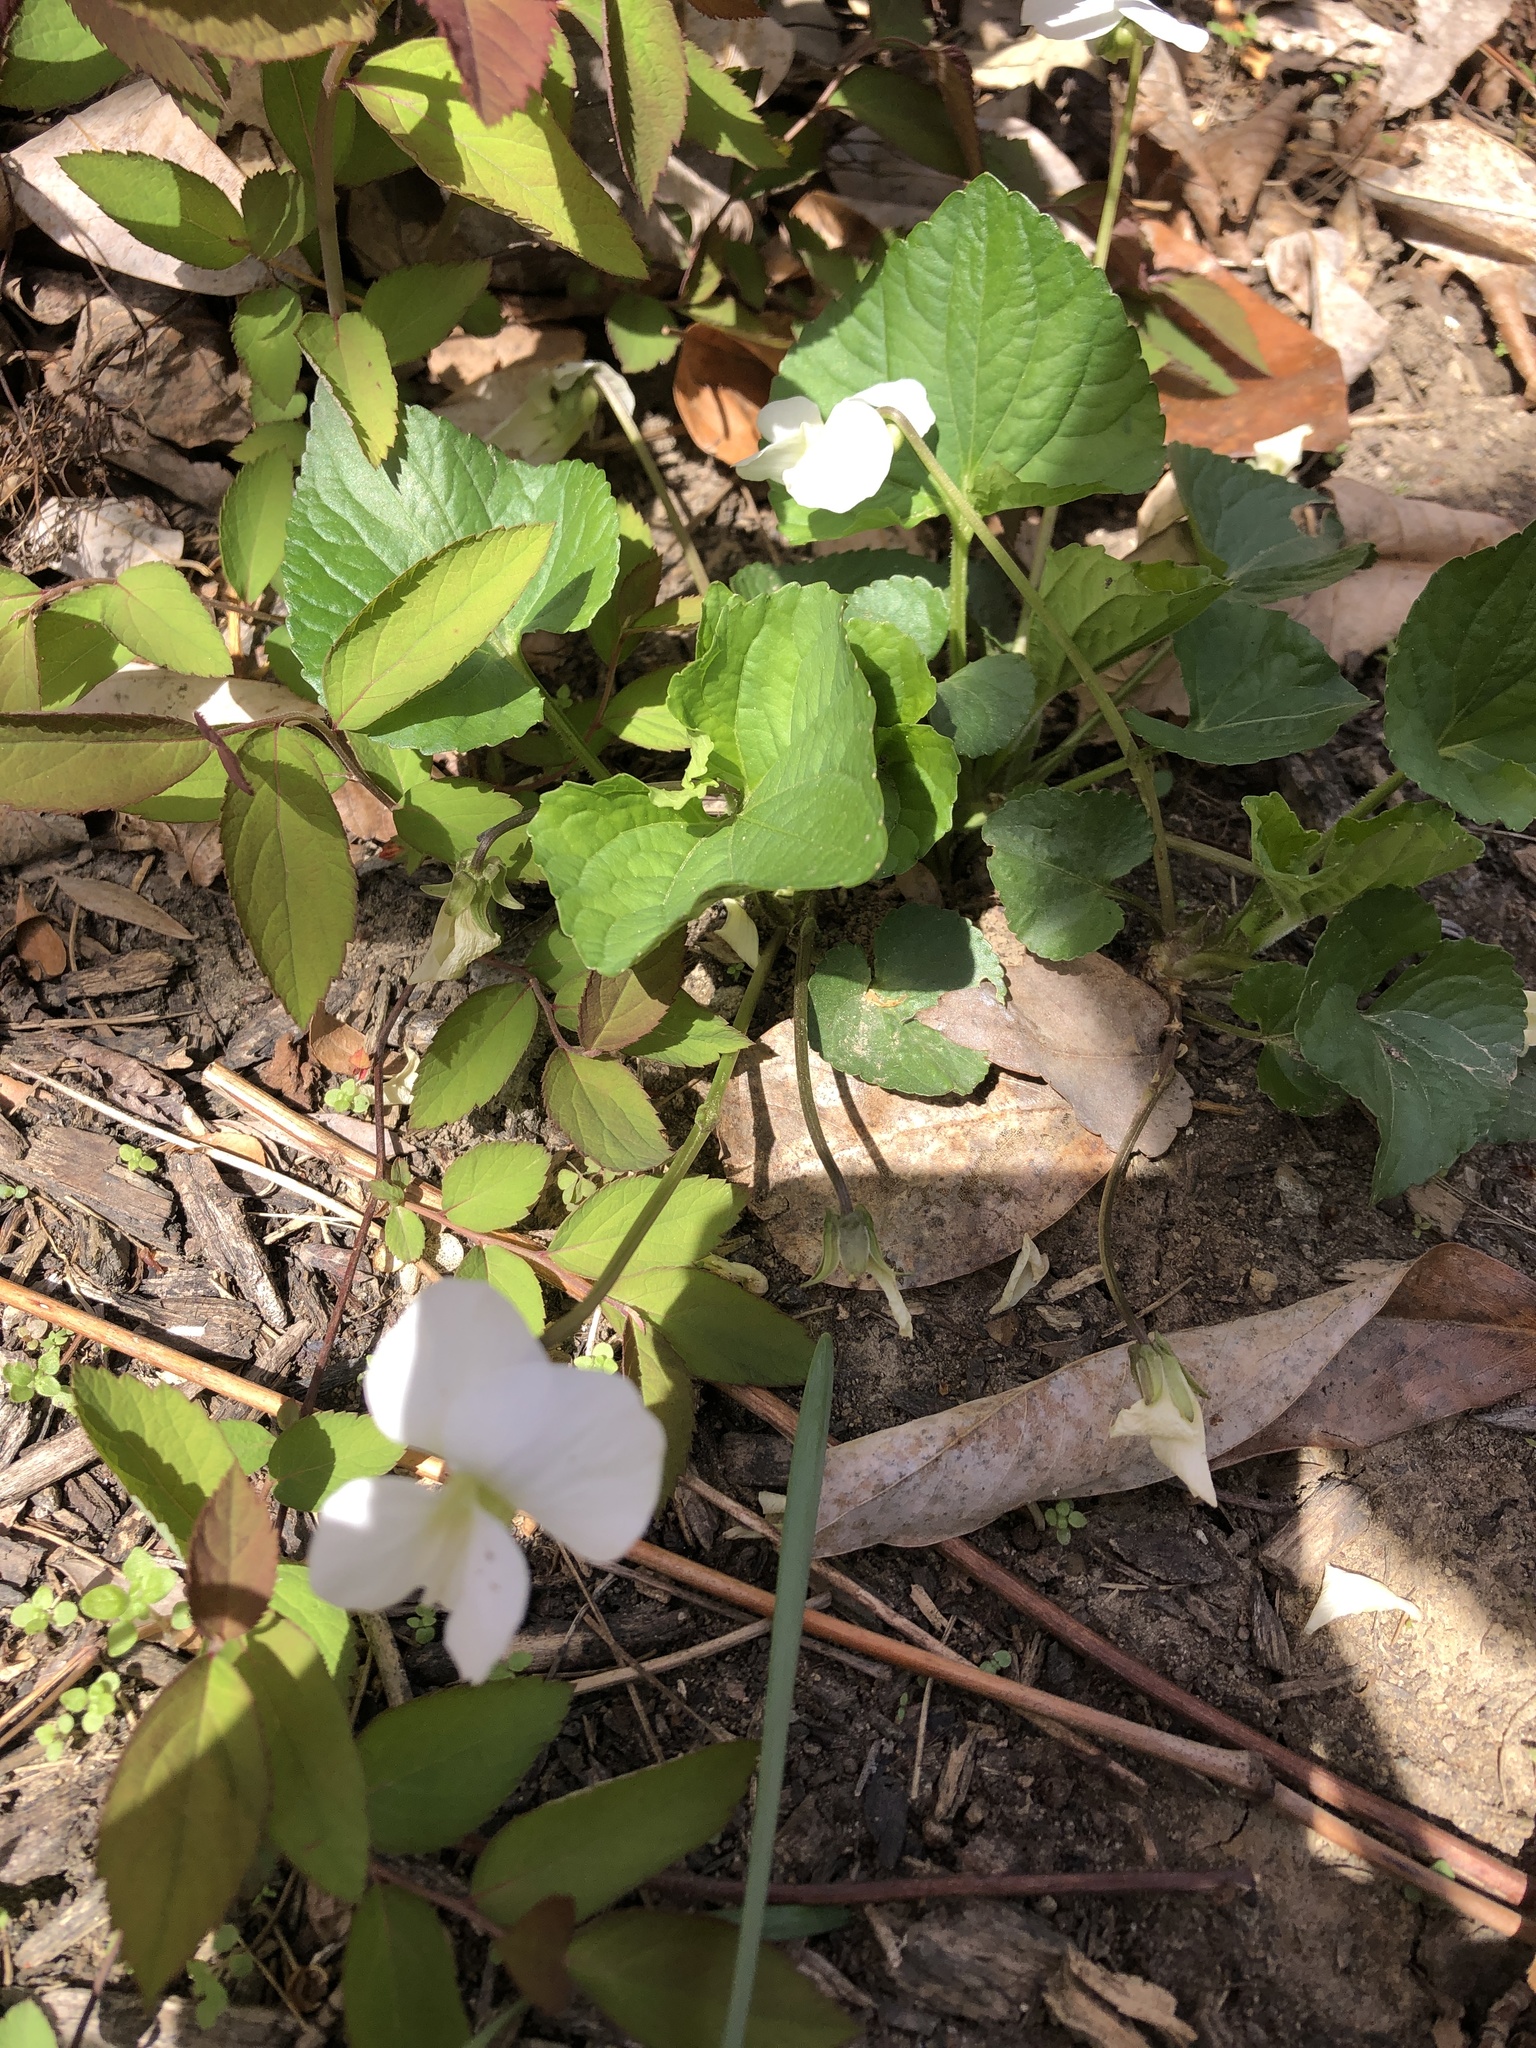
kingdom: Plantae
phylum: Tracheophyta
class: Magnoliopsida
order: Malpighiales
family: Violaceae
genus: Viola
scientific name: Viola striata
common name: Cream violet
